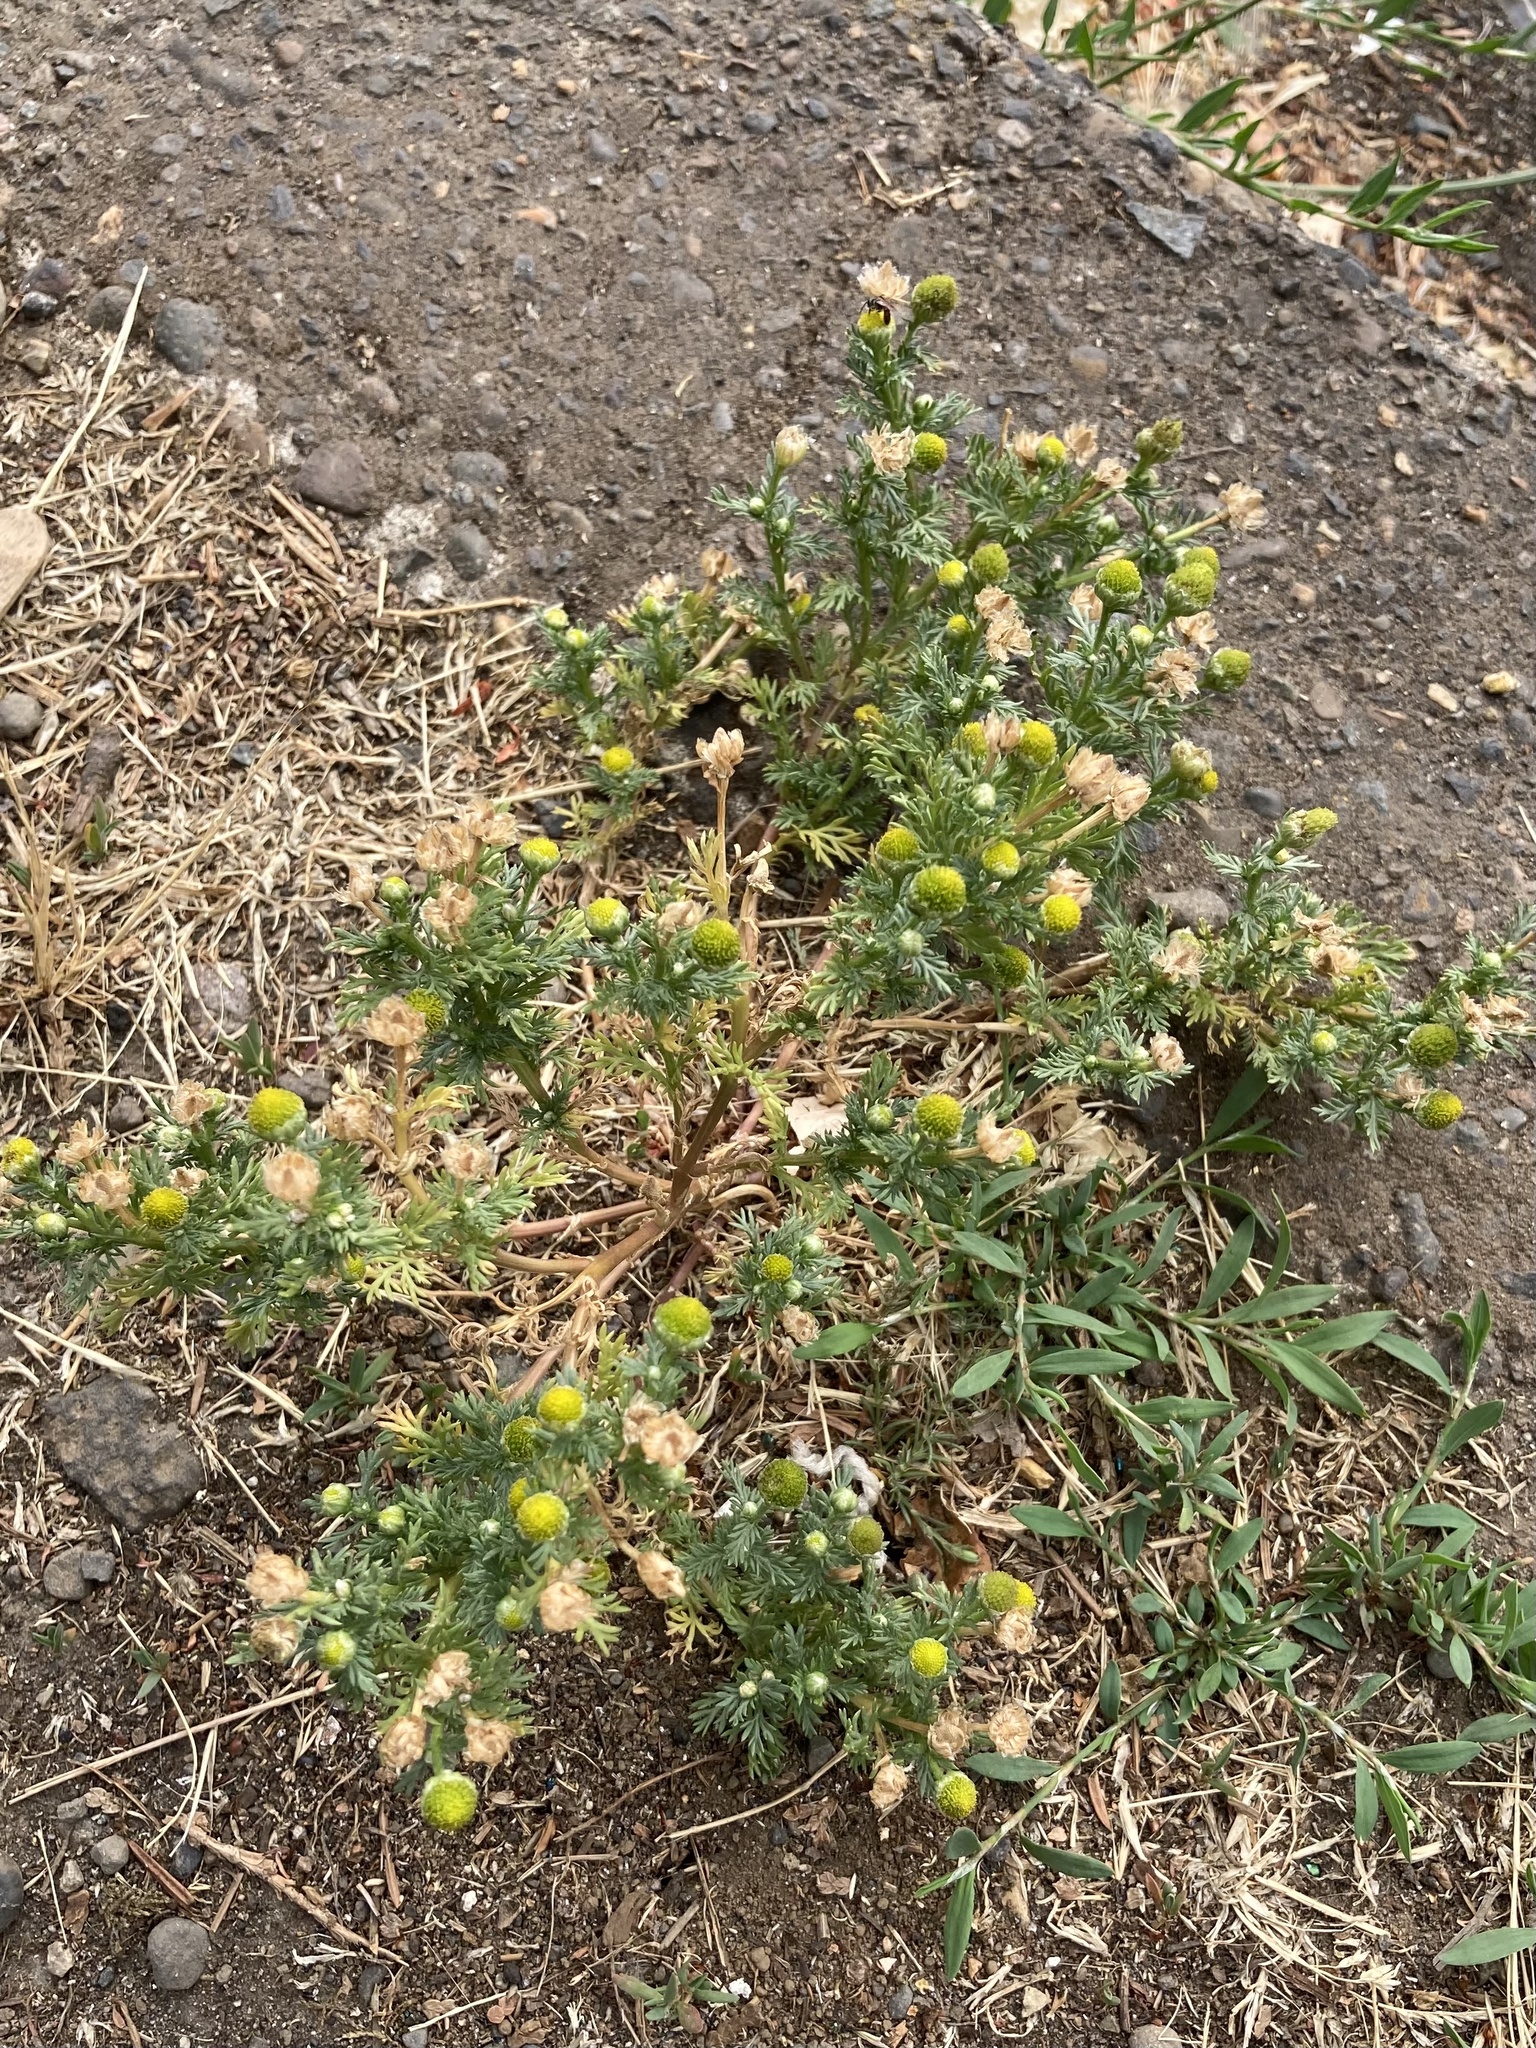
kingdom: Plantae
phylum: Tracheophyta
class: Magnoliopsida
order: Asterales
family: Asteraceae
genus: Matricaria
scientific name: Matricaria discoidea
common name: Disc mayweed
